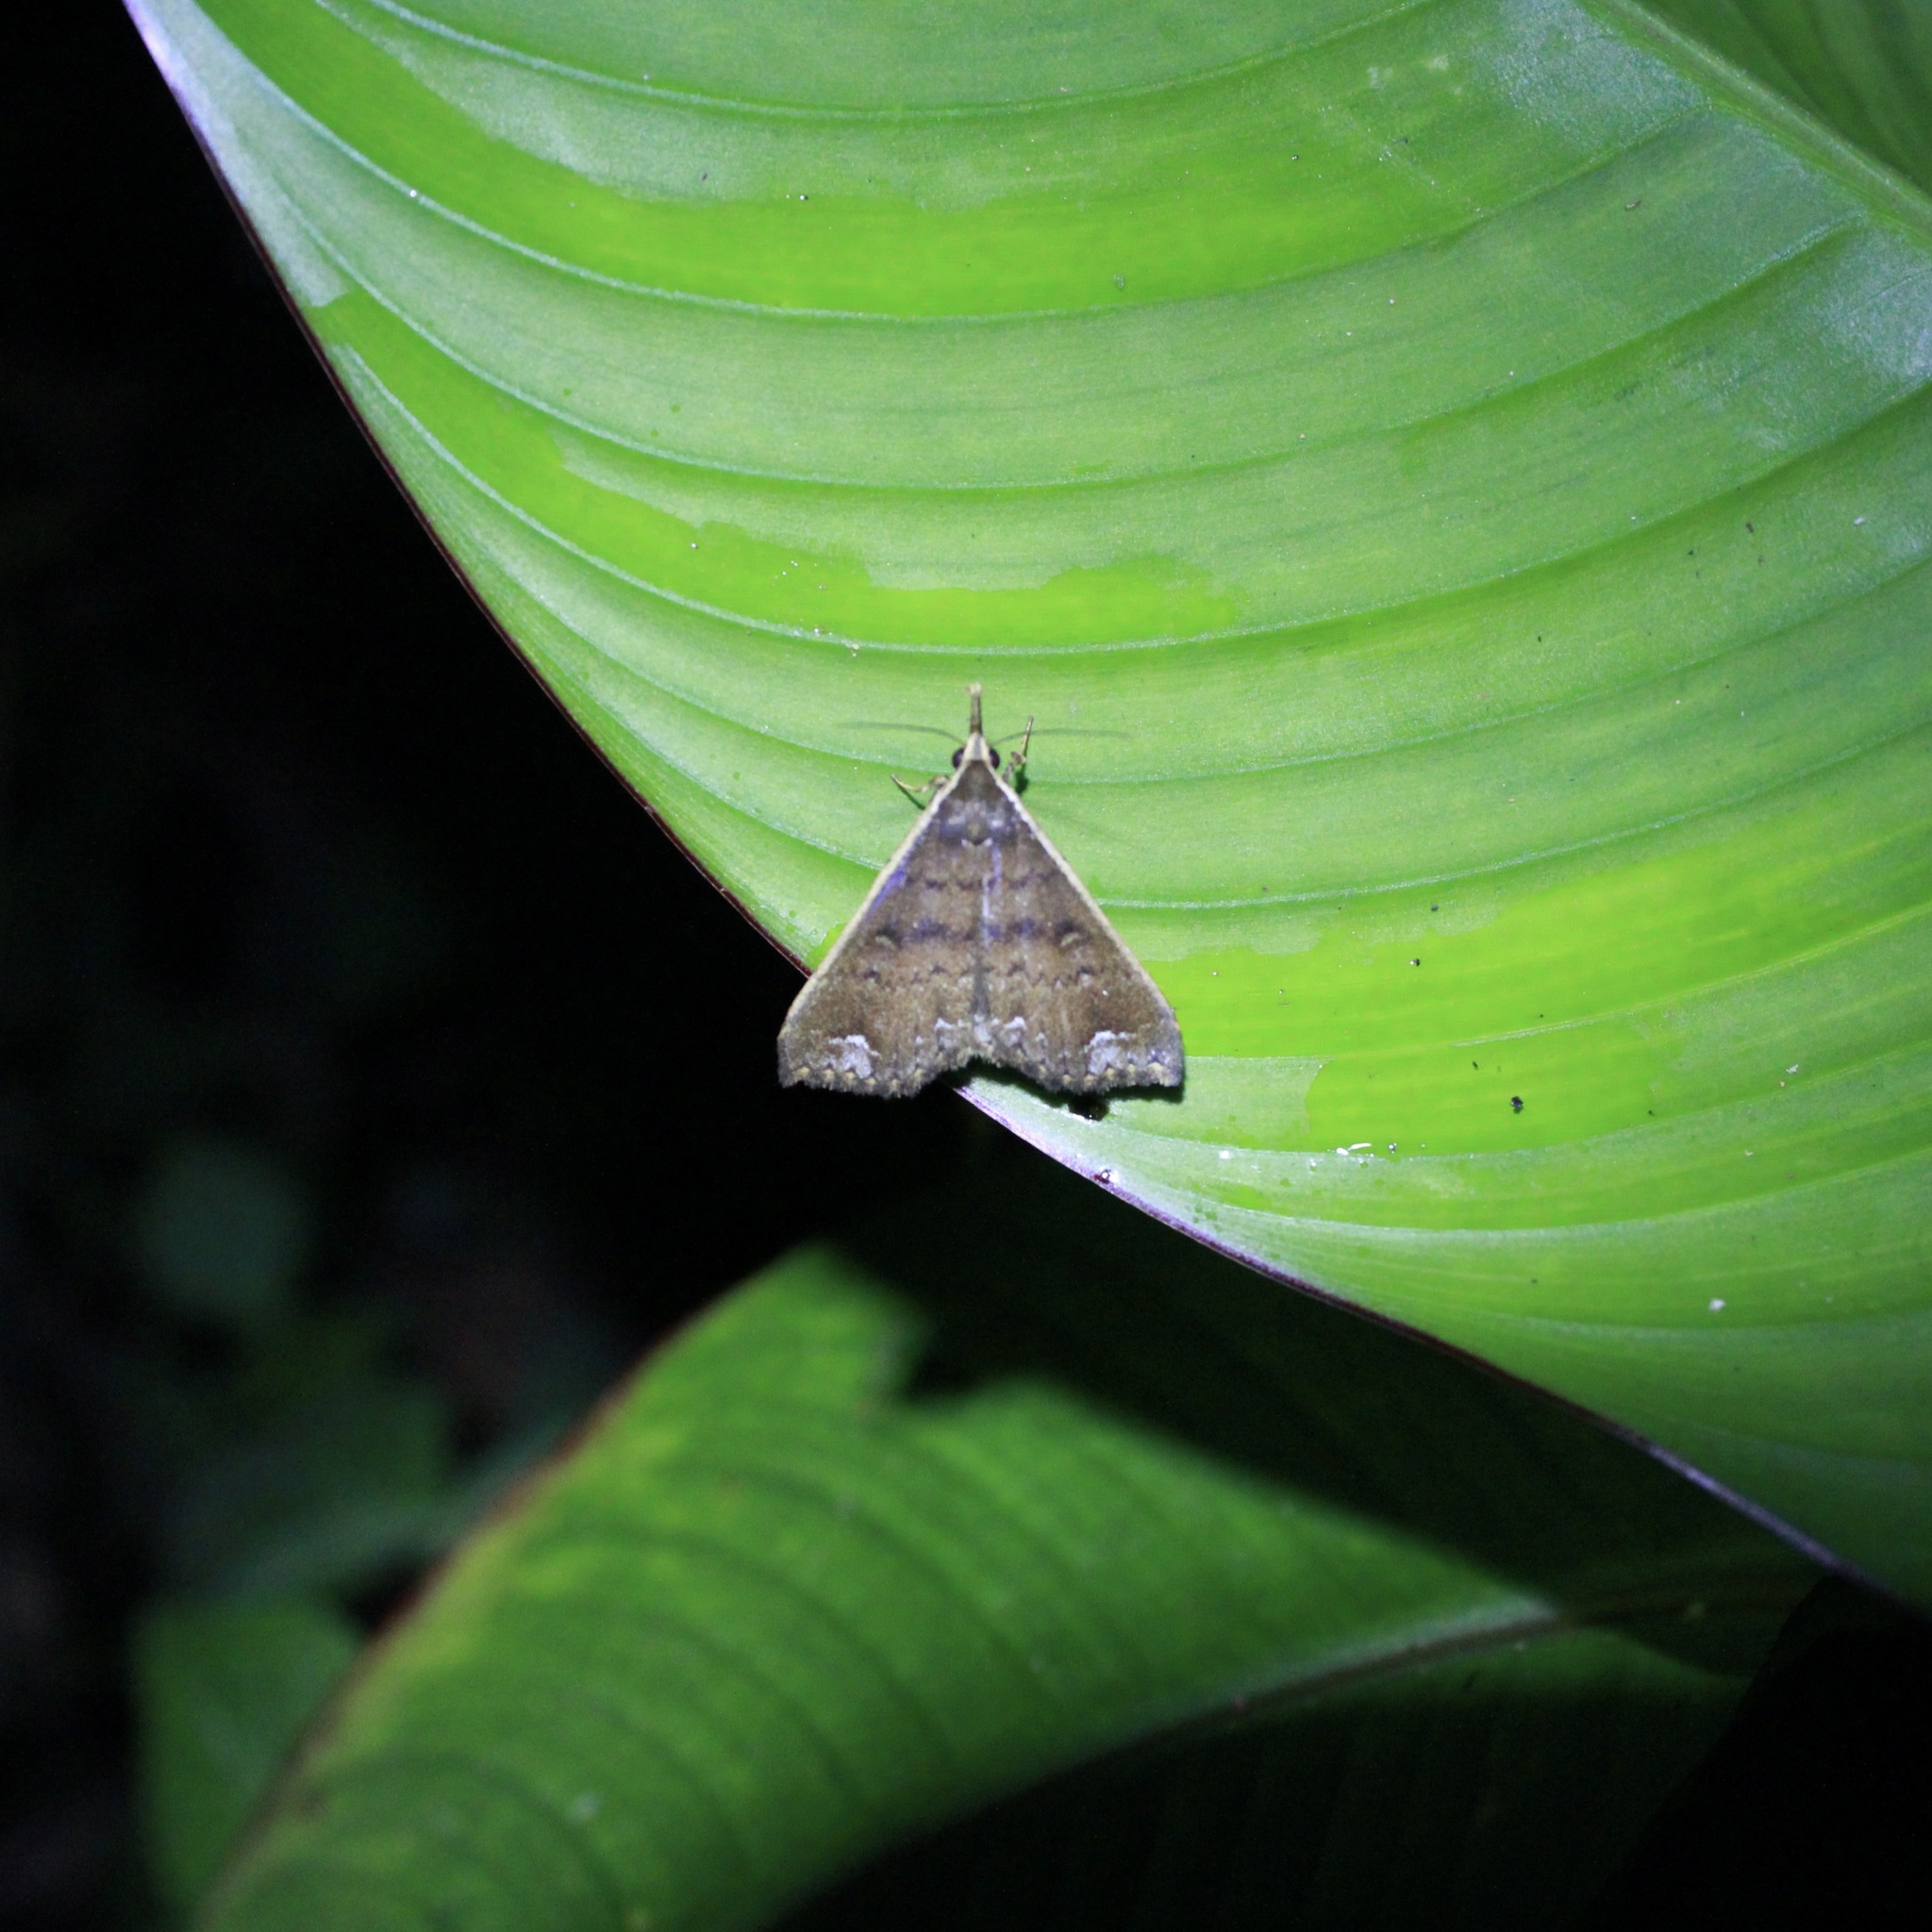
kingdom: Animalia
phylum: Arthropoda
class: Insecta
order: Lepidoptera
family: Erebidae
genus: Micramma
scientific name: Micramma croceicosta
